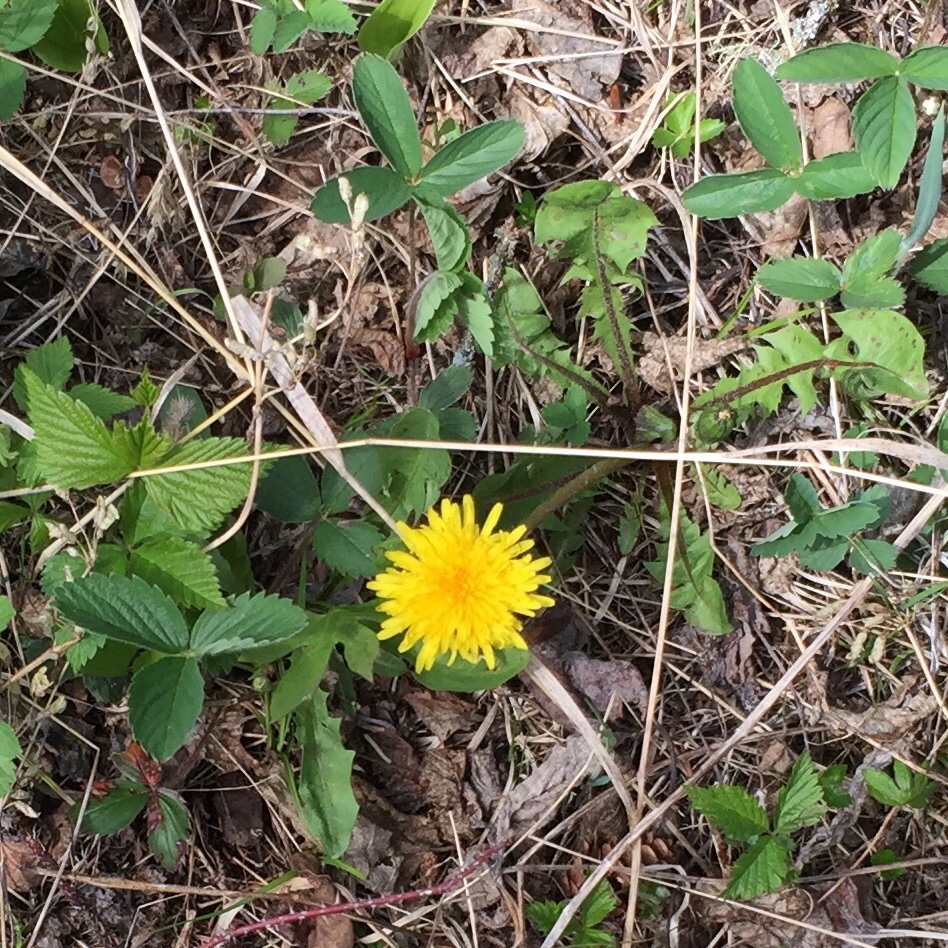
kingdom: Plantae
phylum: Tracheophyta
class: Magnoliopsida
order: Asterales
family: Asteraceae
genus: Taraxacum
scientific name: Taraxacum officinale
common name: Common dandelion
